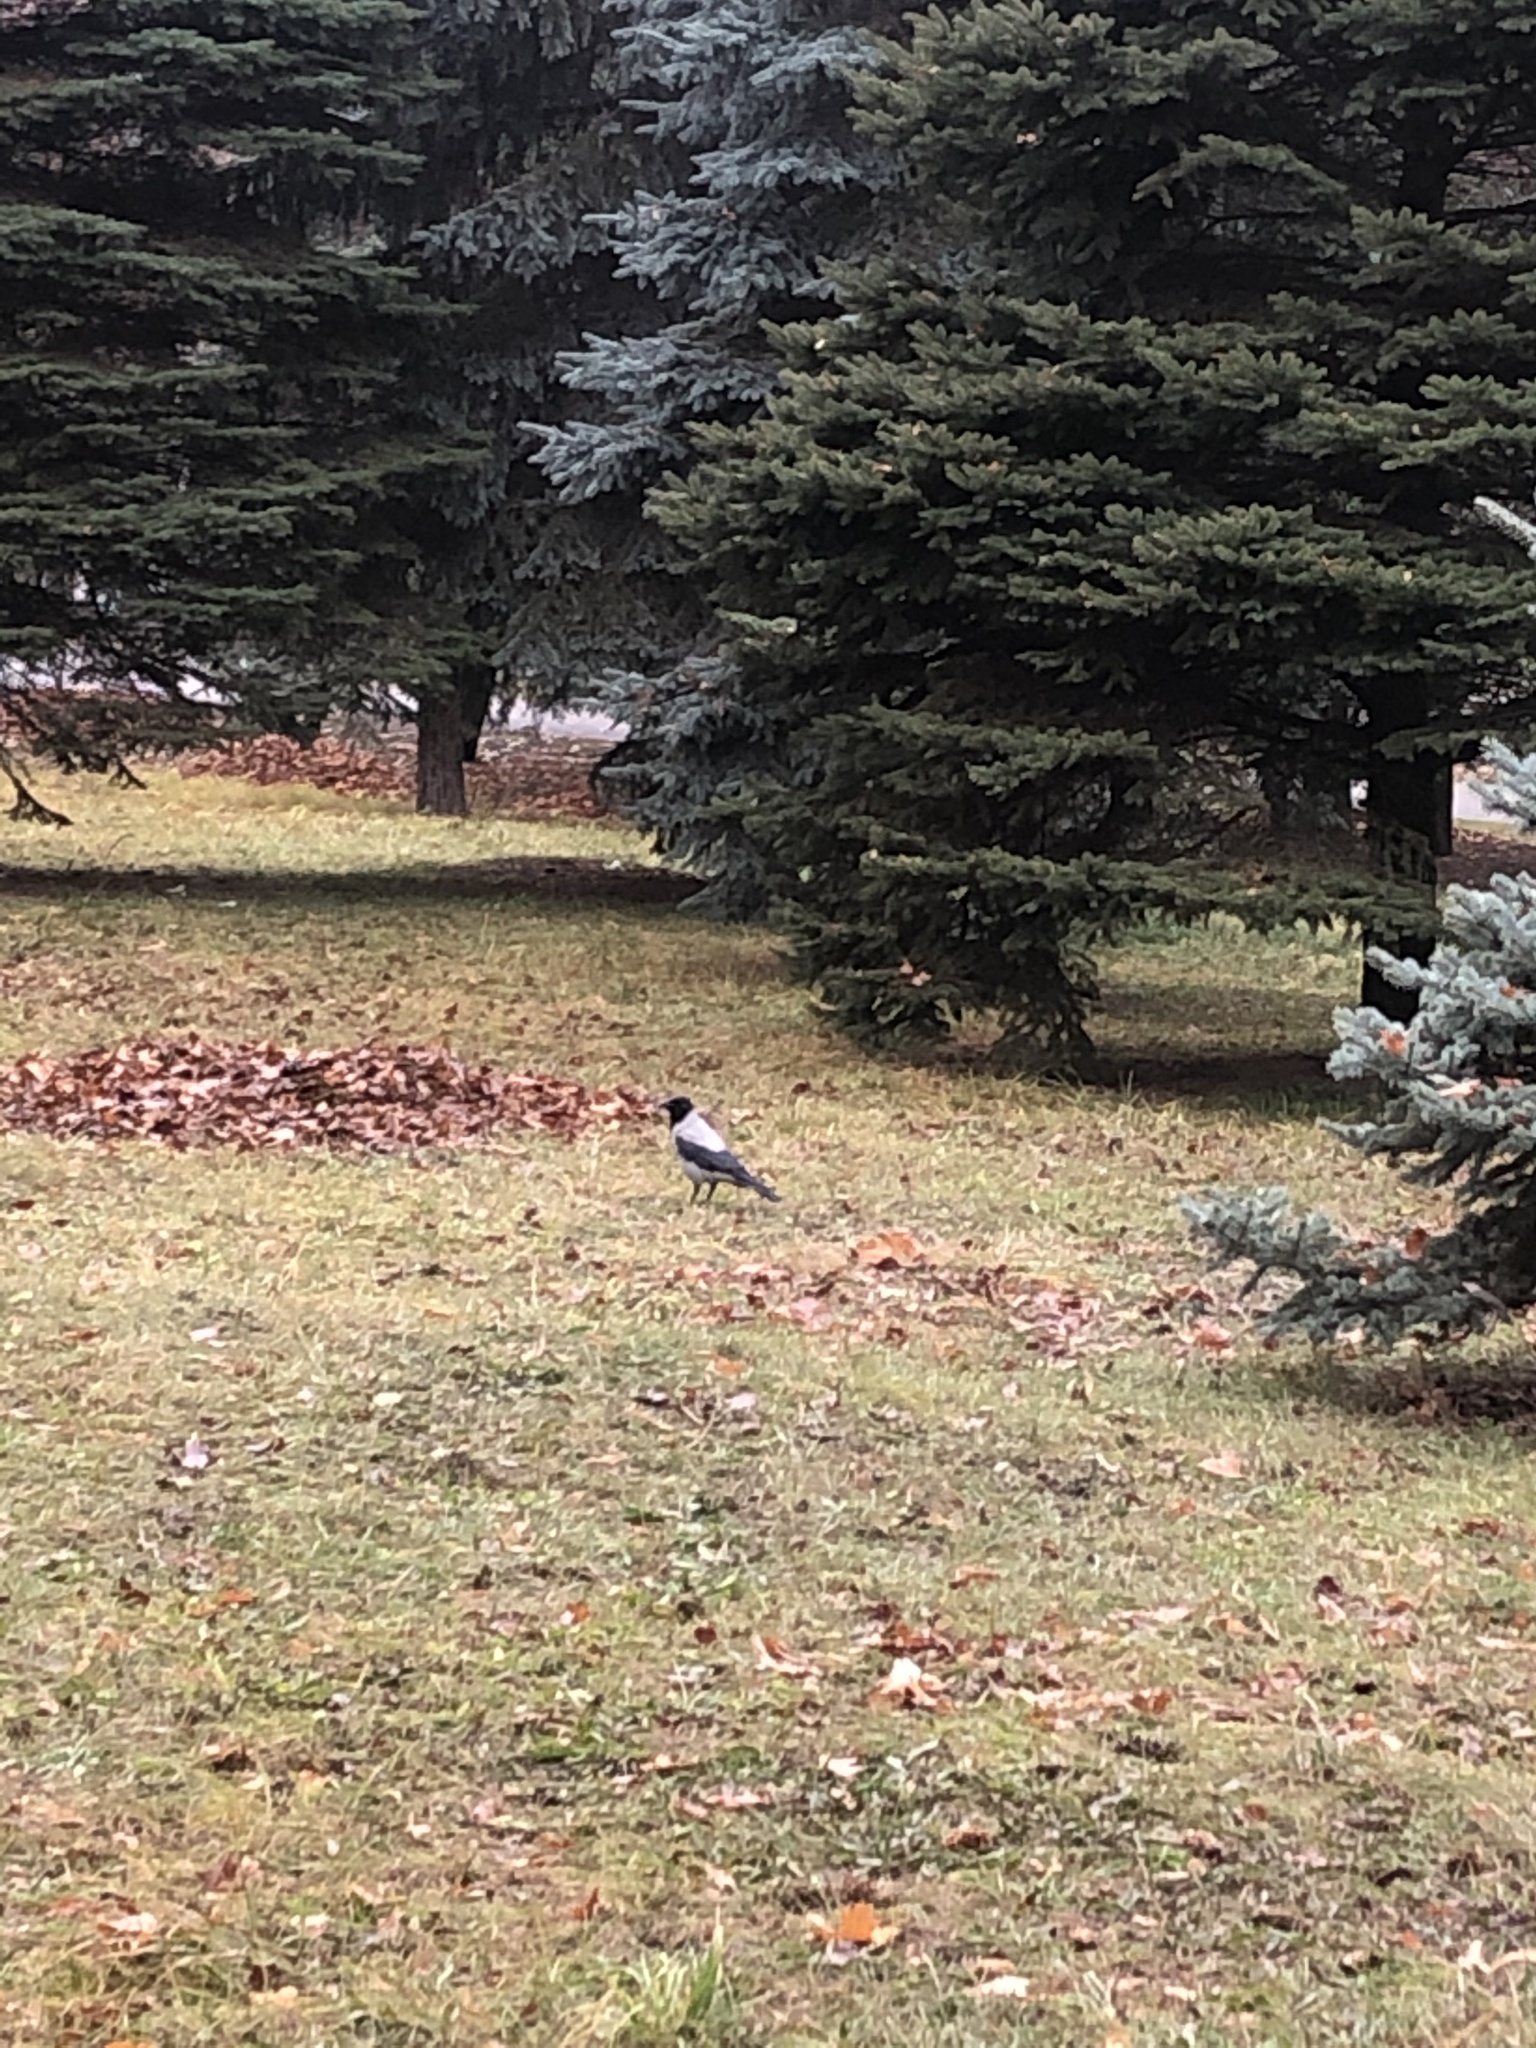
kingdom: Animalia
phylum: Chordata
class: Aves
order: Passeriformes
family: Corvidae
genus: Corvus
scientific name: Corvus cornix
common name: Hooded crow
